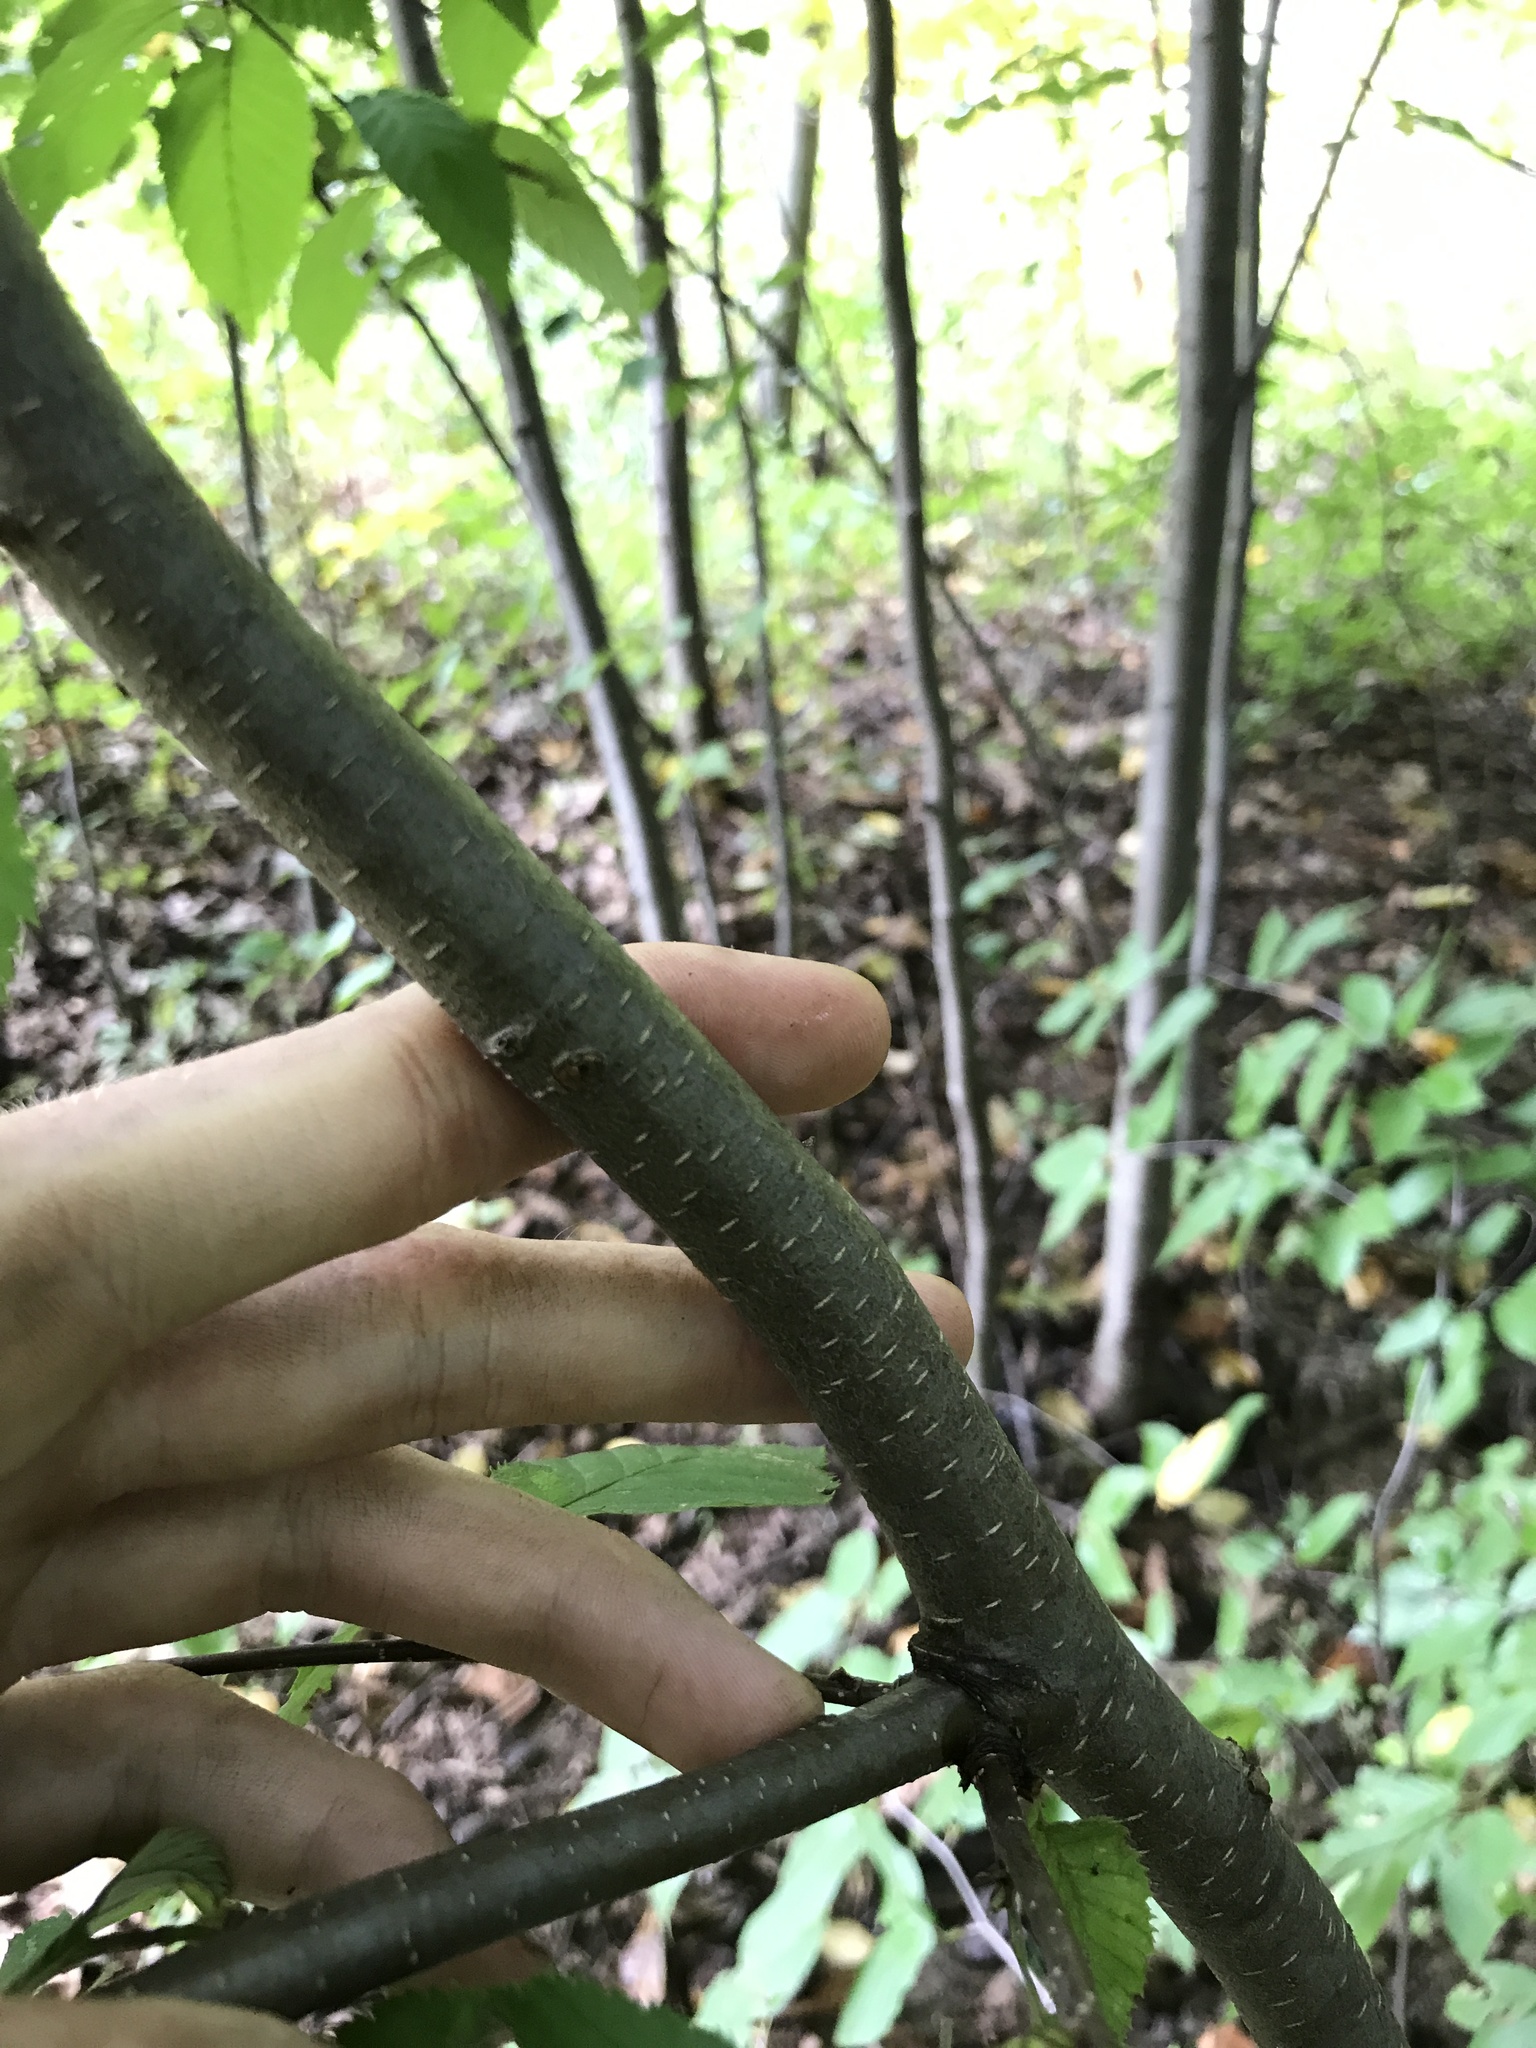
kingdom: Plantae
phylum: Tracheophyta
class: Magnoliopsida
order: Fagales
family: Betulaceae
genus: Betula
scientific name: Betula lenta
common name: Black birch
